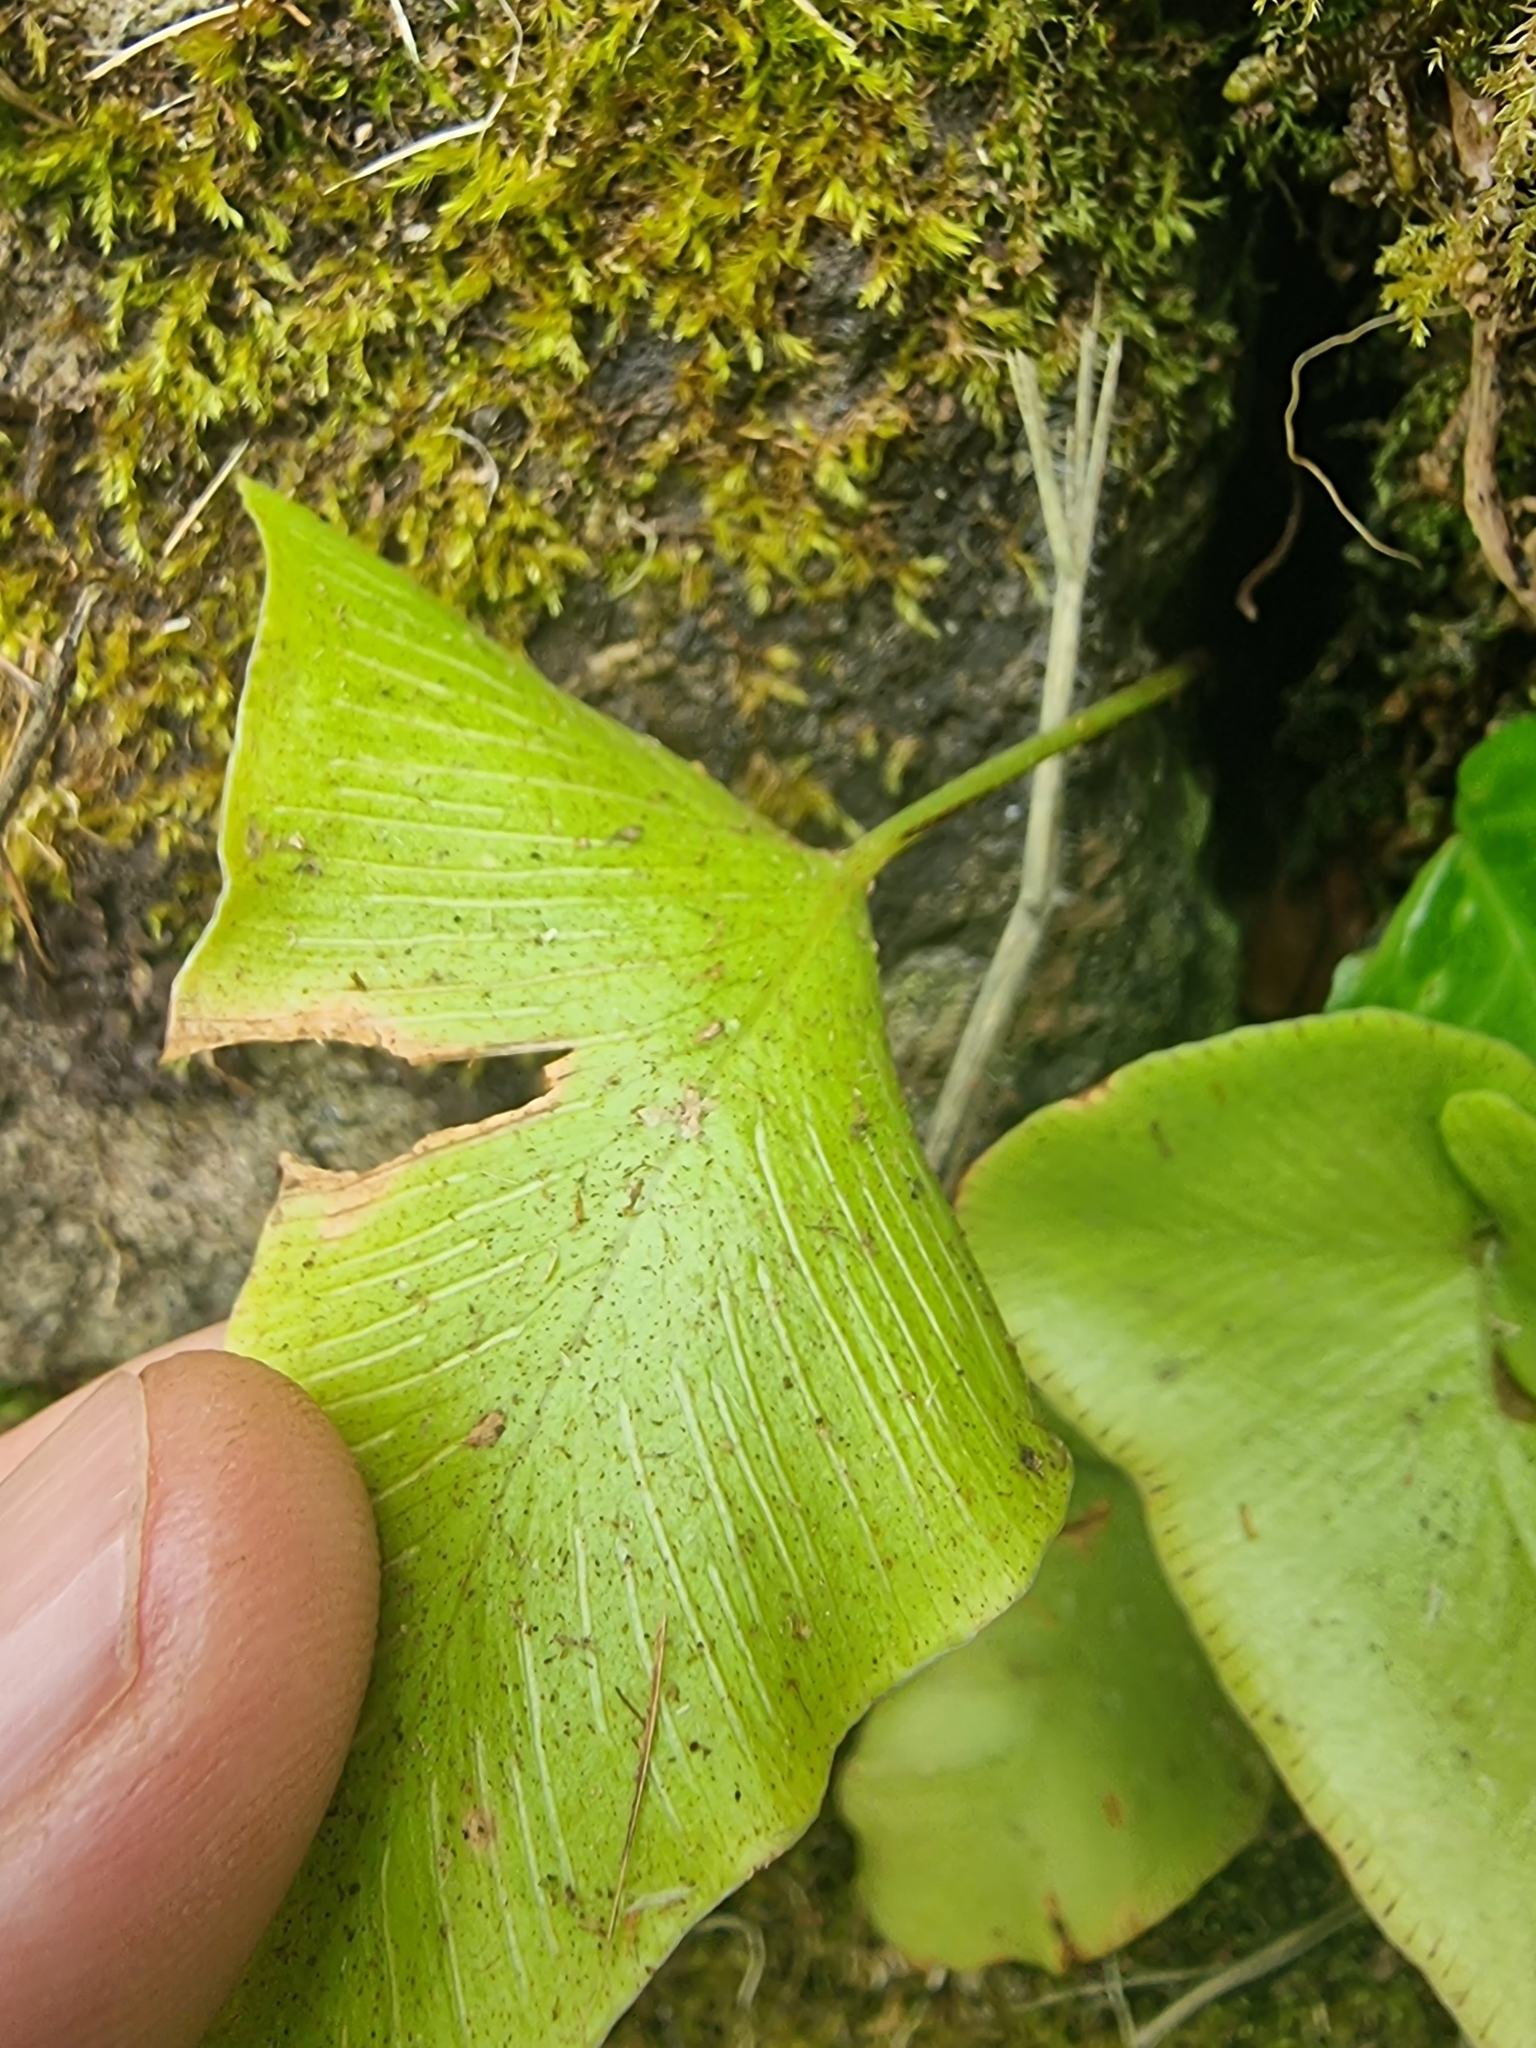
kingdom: Plantae
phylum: Tracheophyta
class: Polypodiopsida
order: Polypodiales
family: Aspleniaceae
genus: Asplenium
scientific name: Asplenium hemionitis
